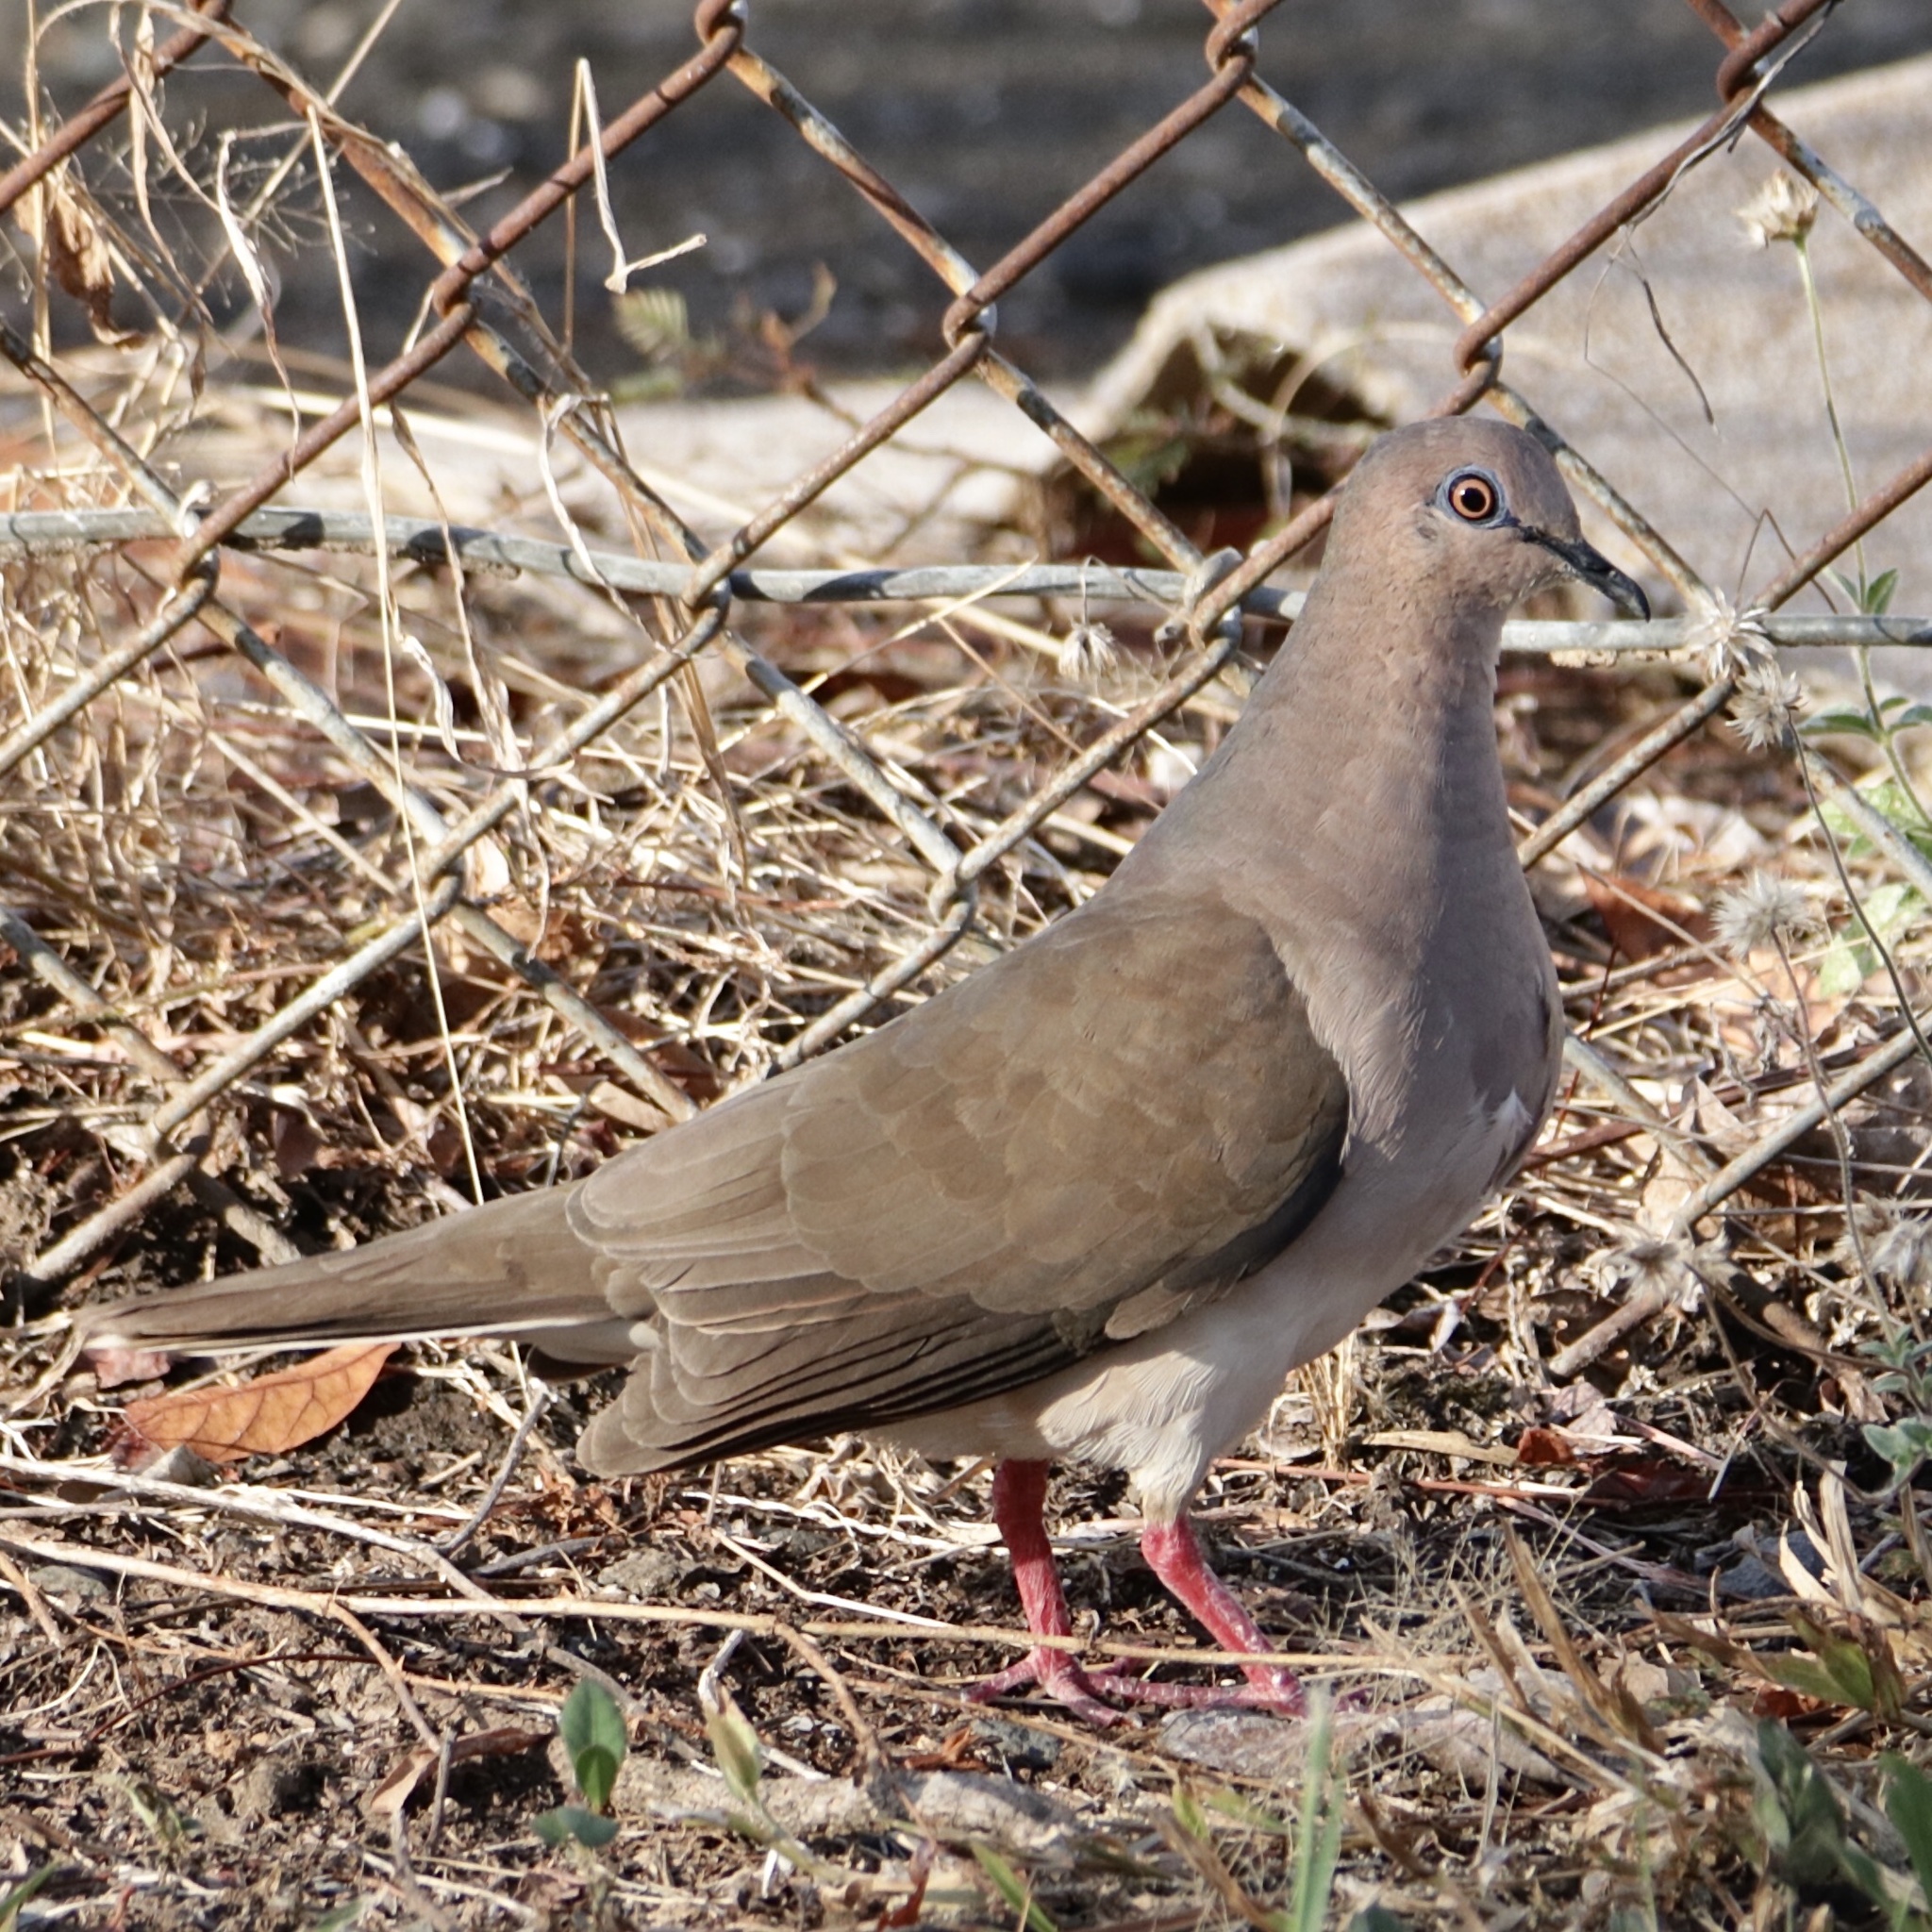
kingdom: Animalia
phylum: Chordata
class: Aves
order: Columbiformes
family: Columbidae
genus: Leptotila
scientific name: Leptotila verreauxi
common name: White-tipped dove
